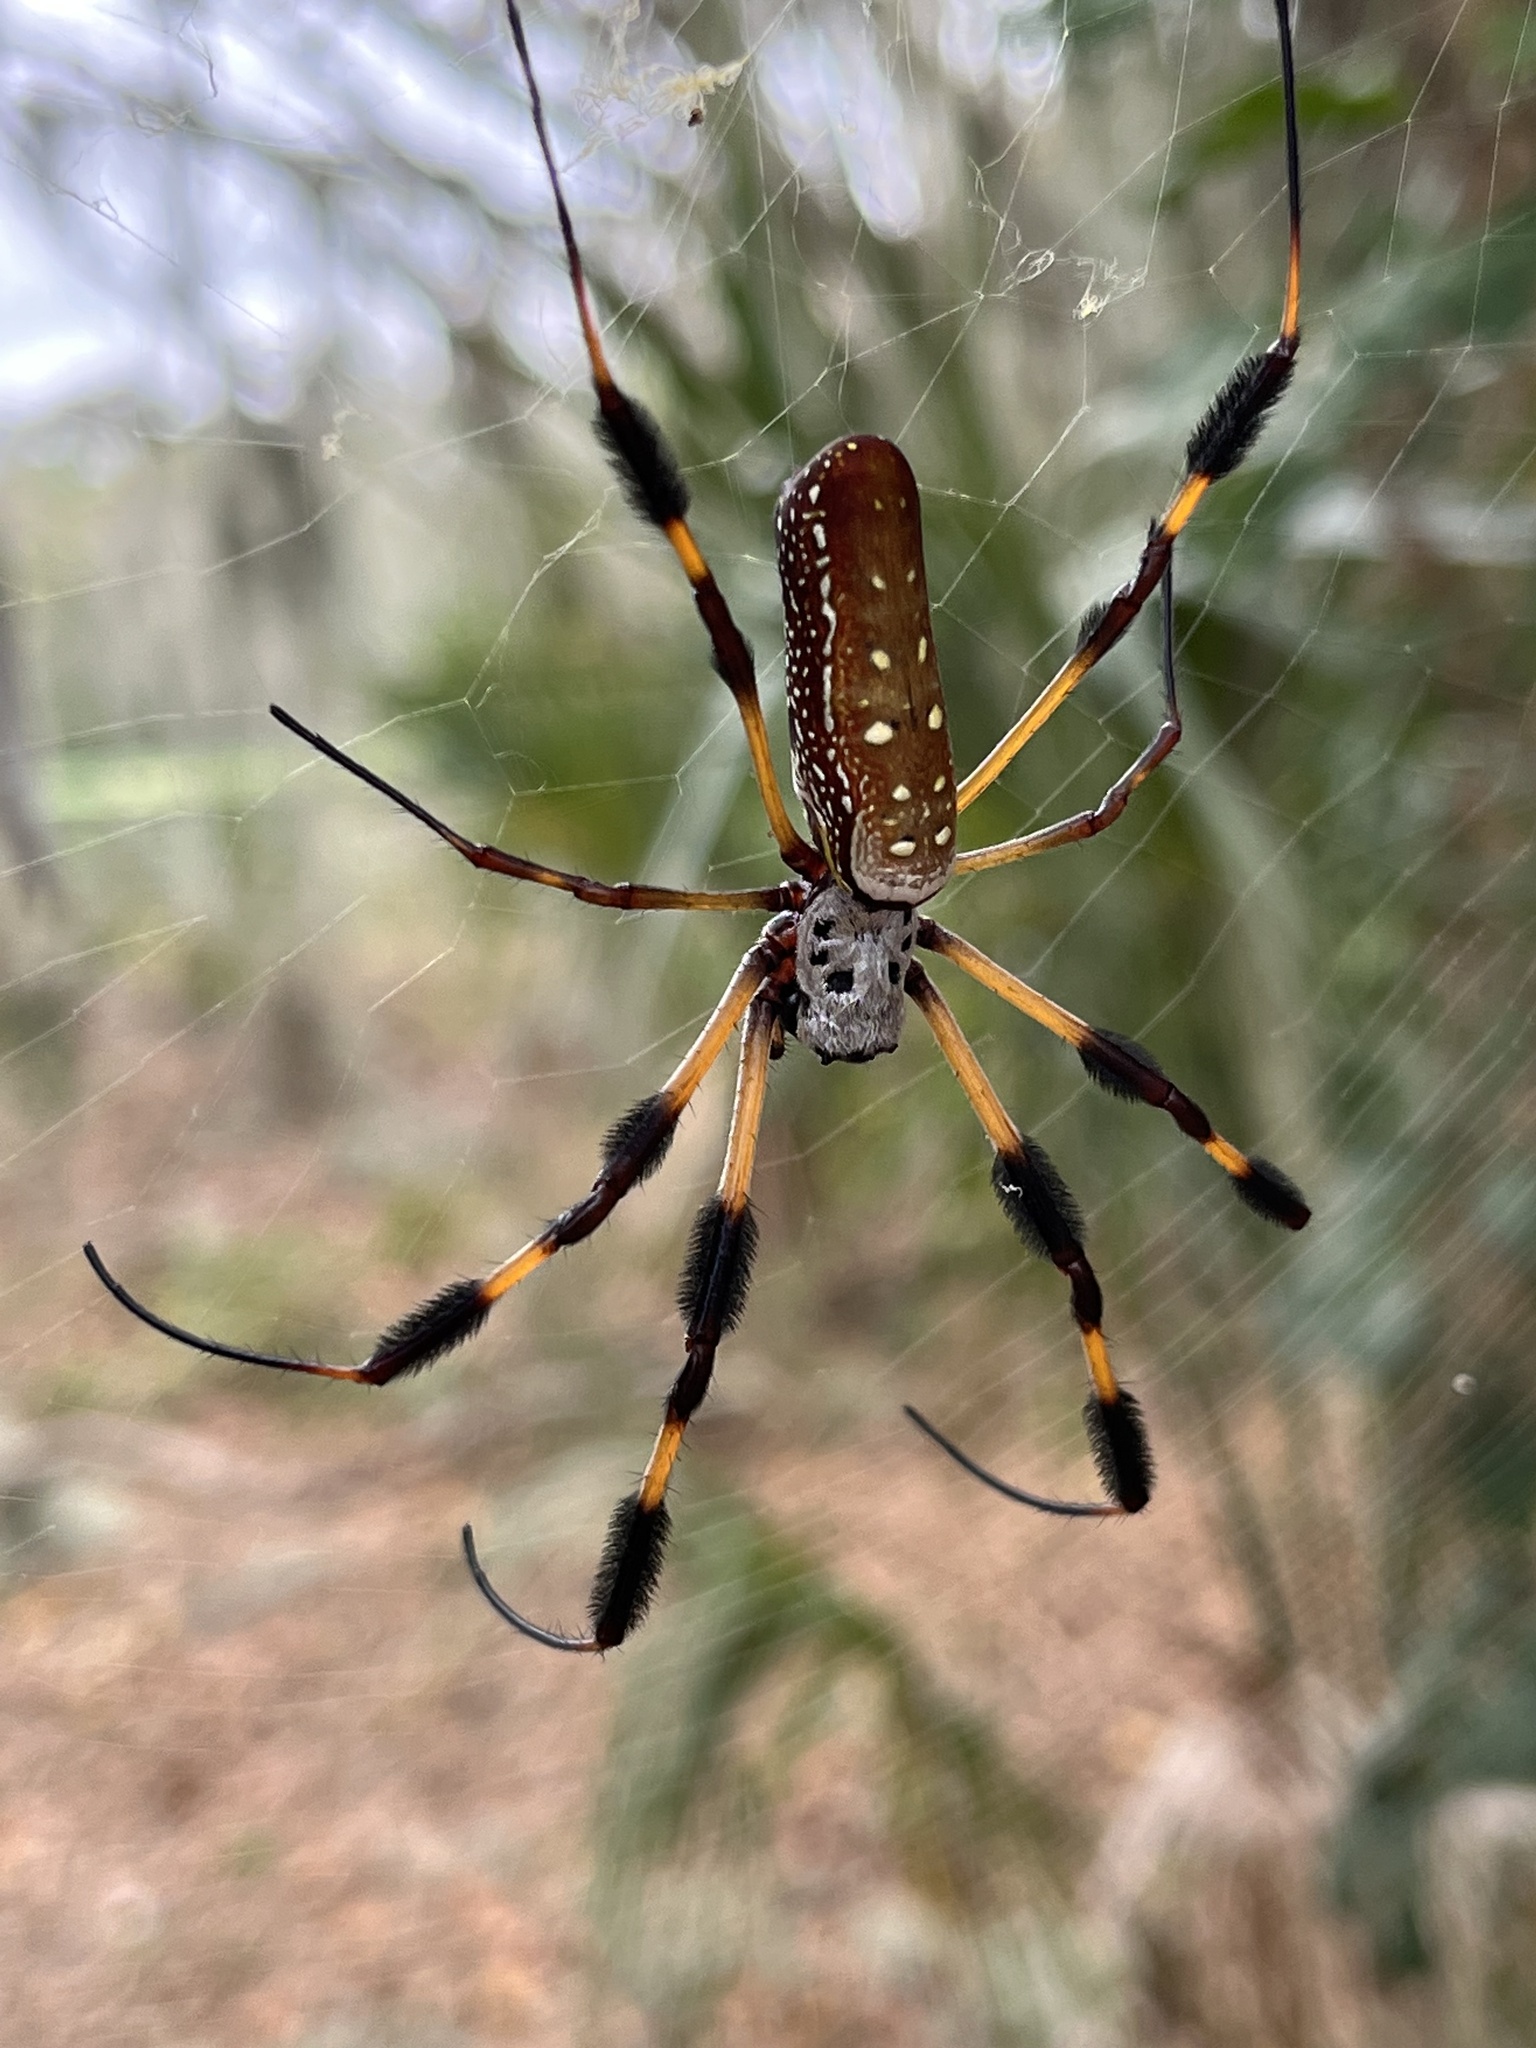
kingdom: Animalia
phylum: Arthropoda
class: Arachnida
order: Araneae
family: Araneidae
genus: Trichonephila
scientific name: Trichonephila clavipes
